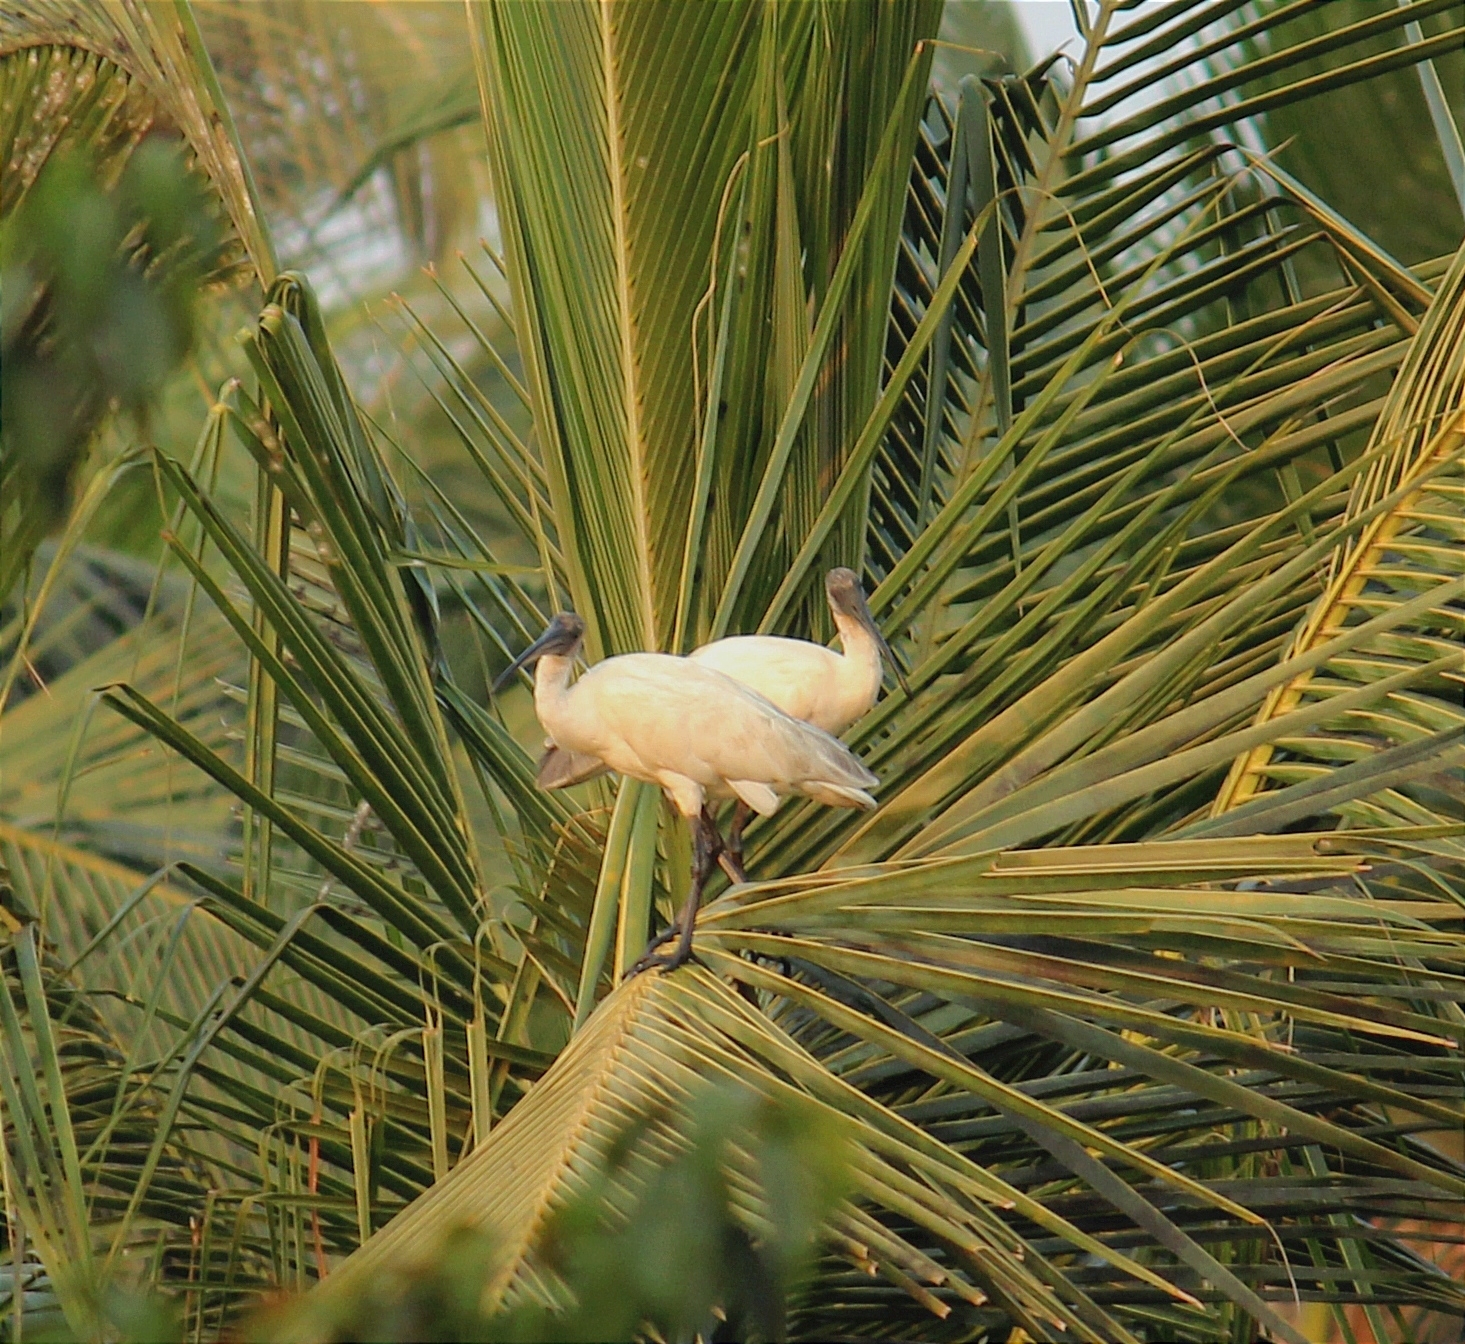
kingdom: Animalia
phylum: Chordata
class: Aves
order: Pelecaniformes
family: Threskiornithidae
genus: Threskiornis
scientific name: Threskiornis melanocephalus
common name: Black-headed ibis
